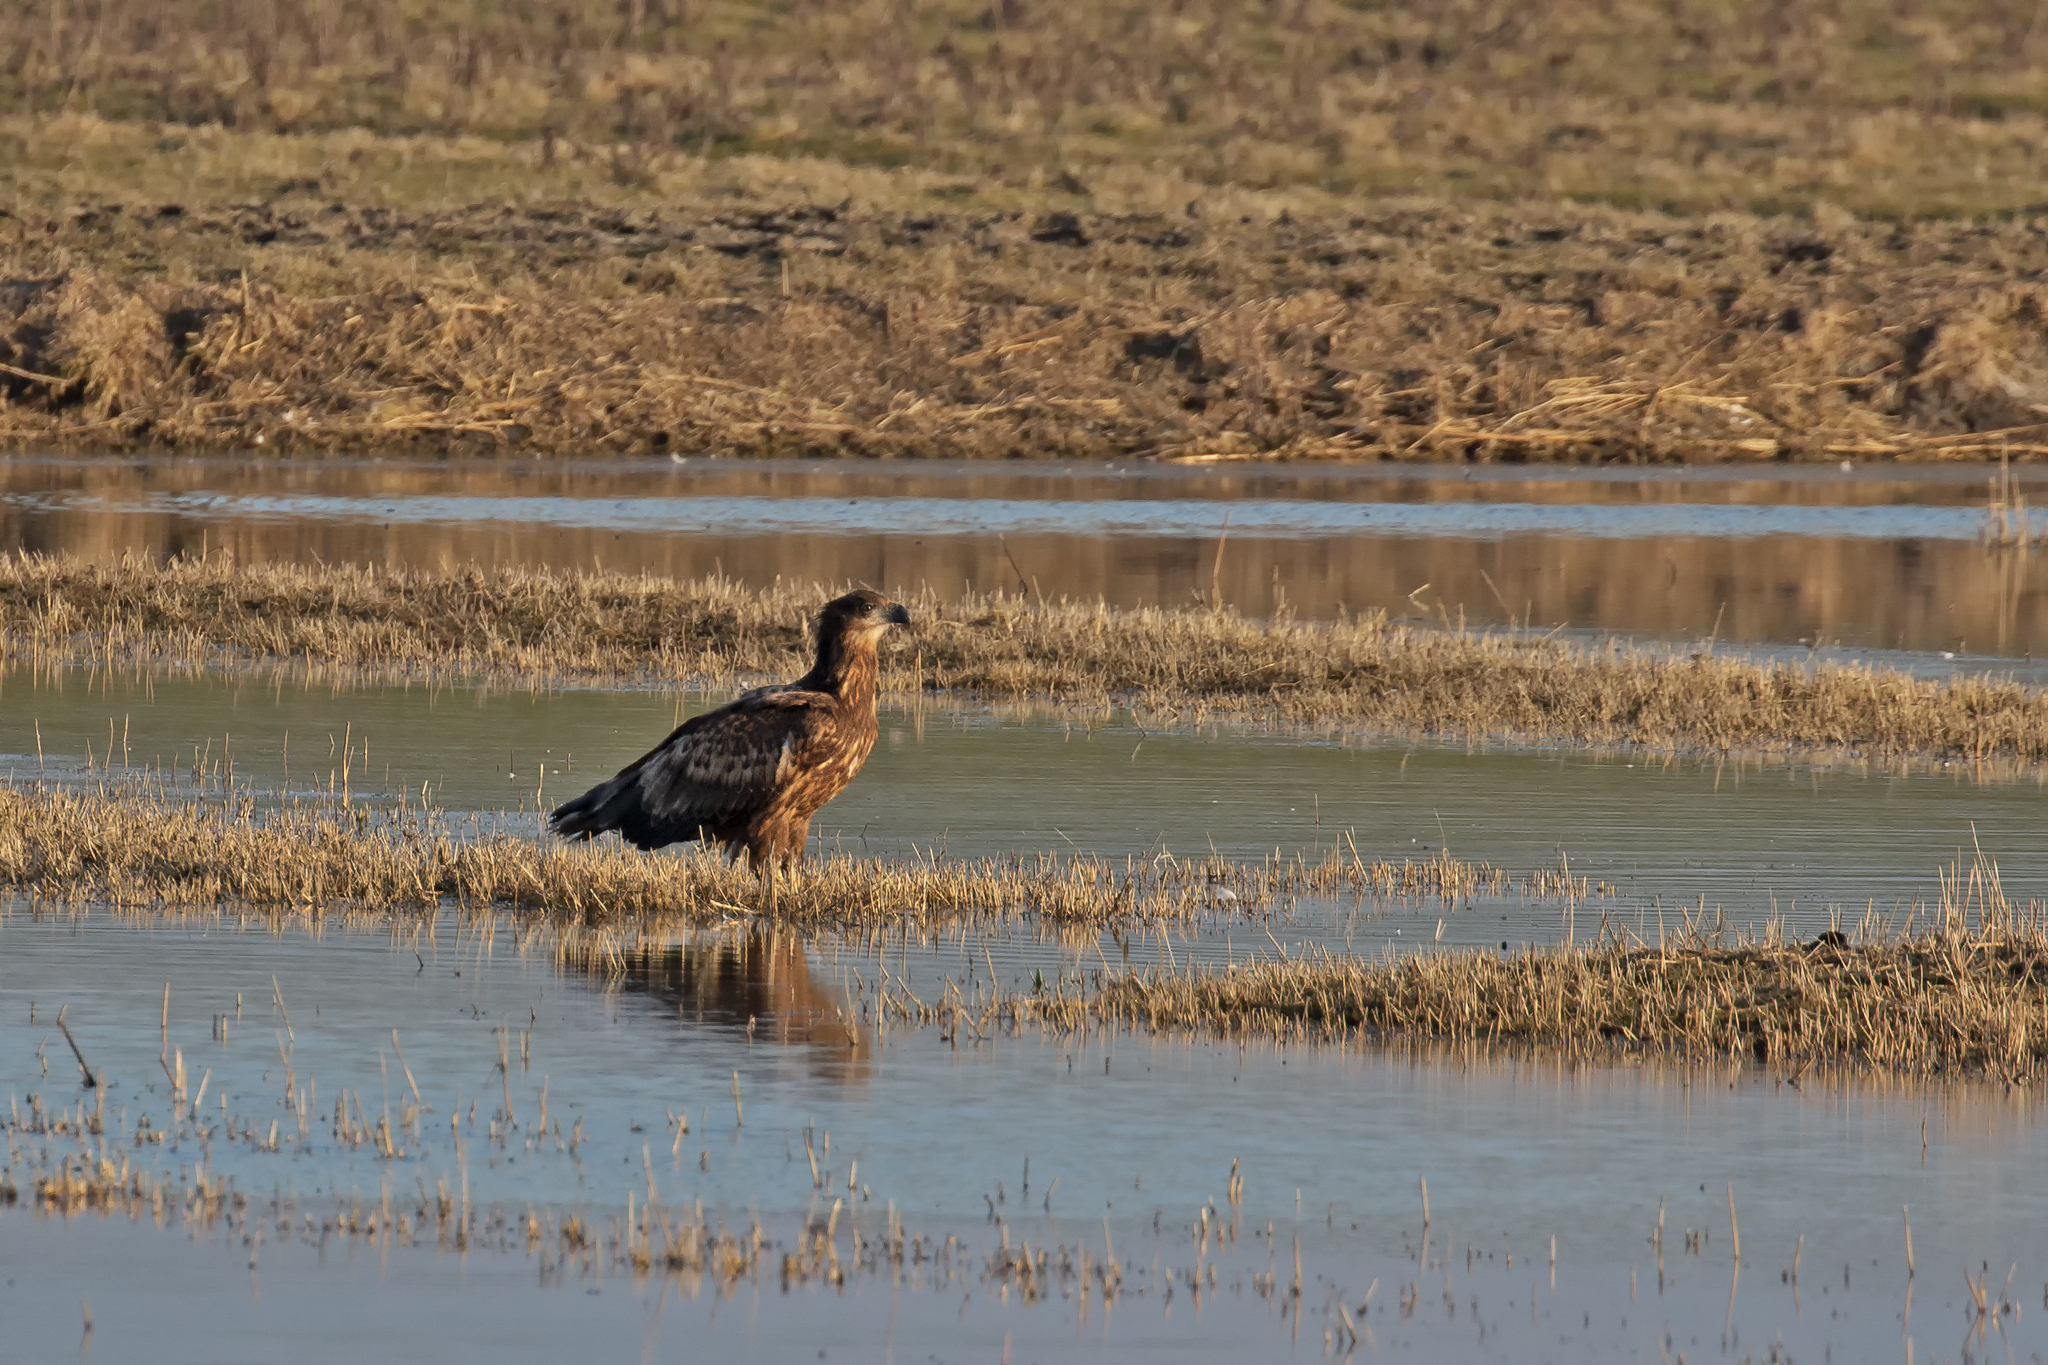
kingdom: Animalia
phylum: Chordata
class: Aves
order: Accipitriformes
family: Accipitridae
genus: Haliaeetus
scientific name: Haliaeetus albicilla
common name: White-tailed eagle
